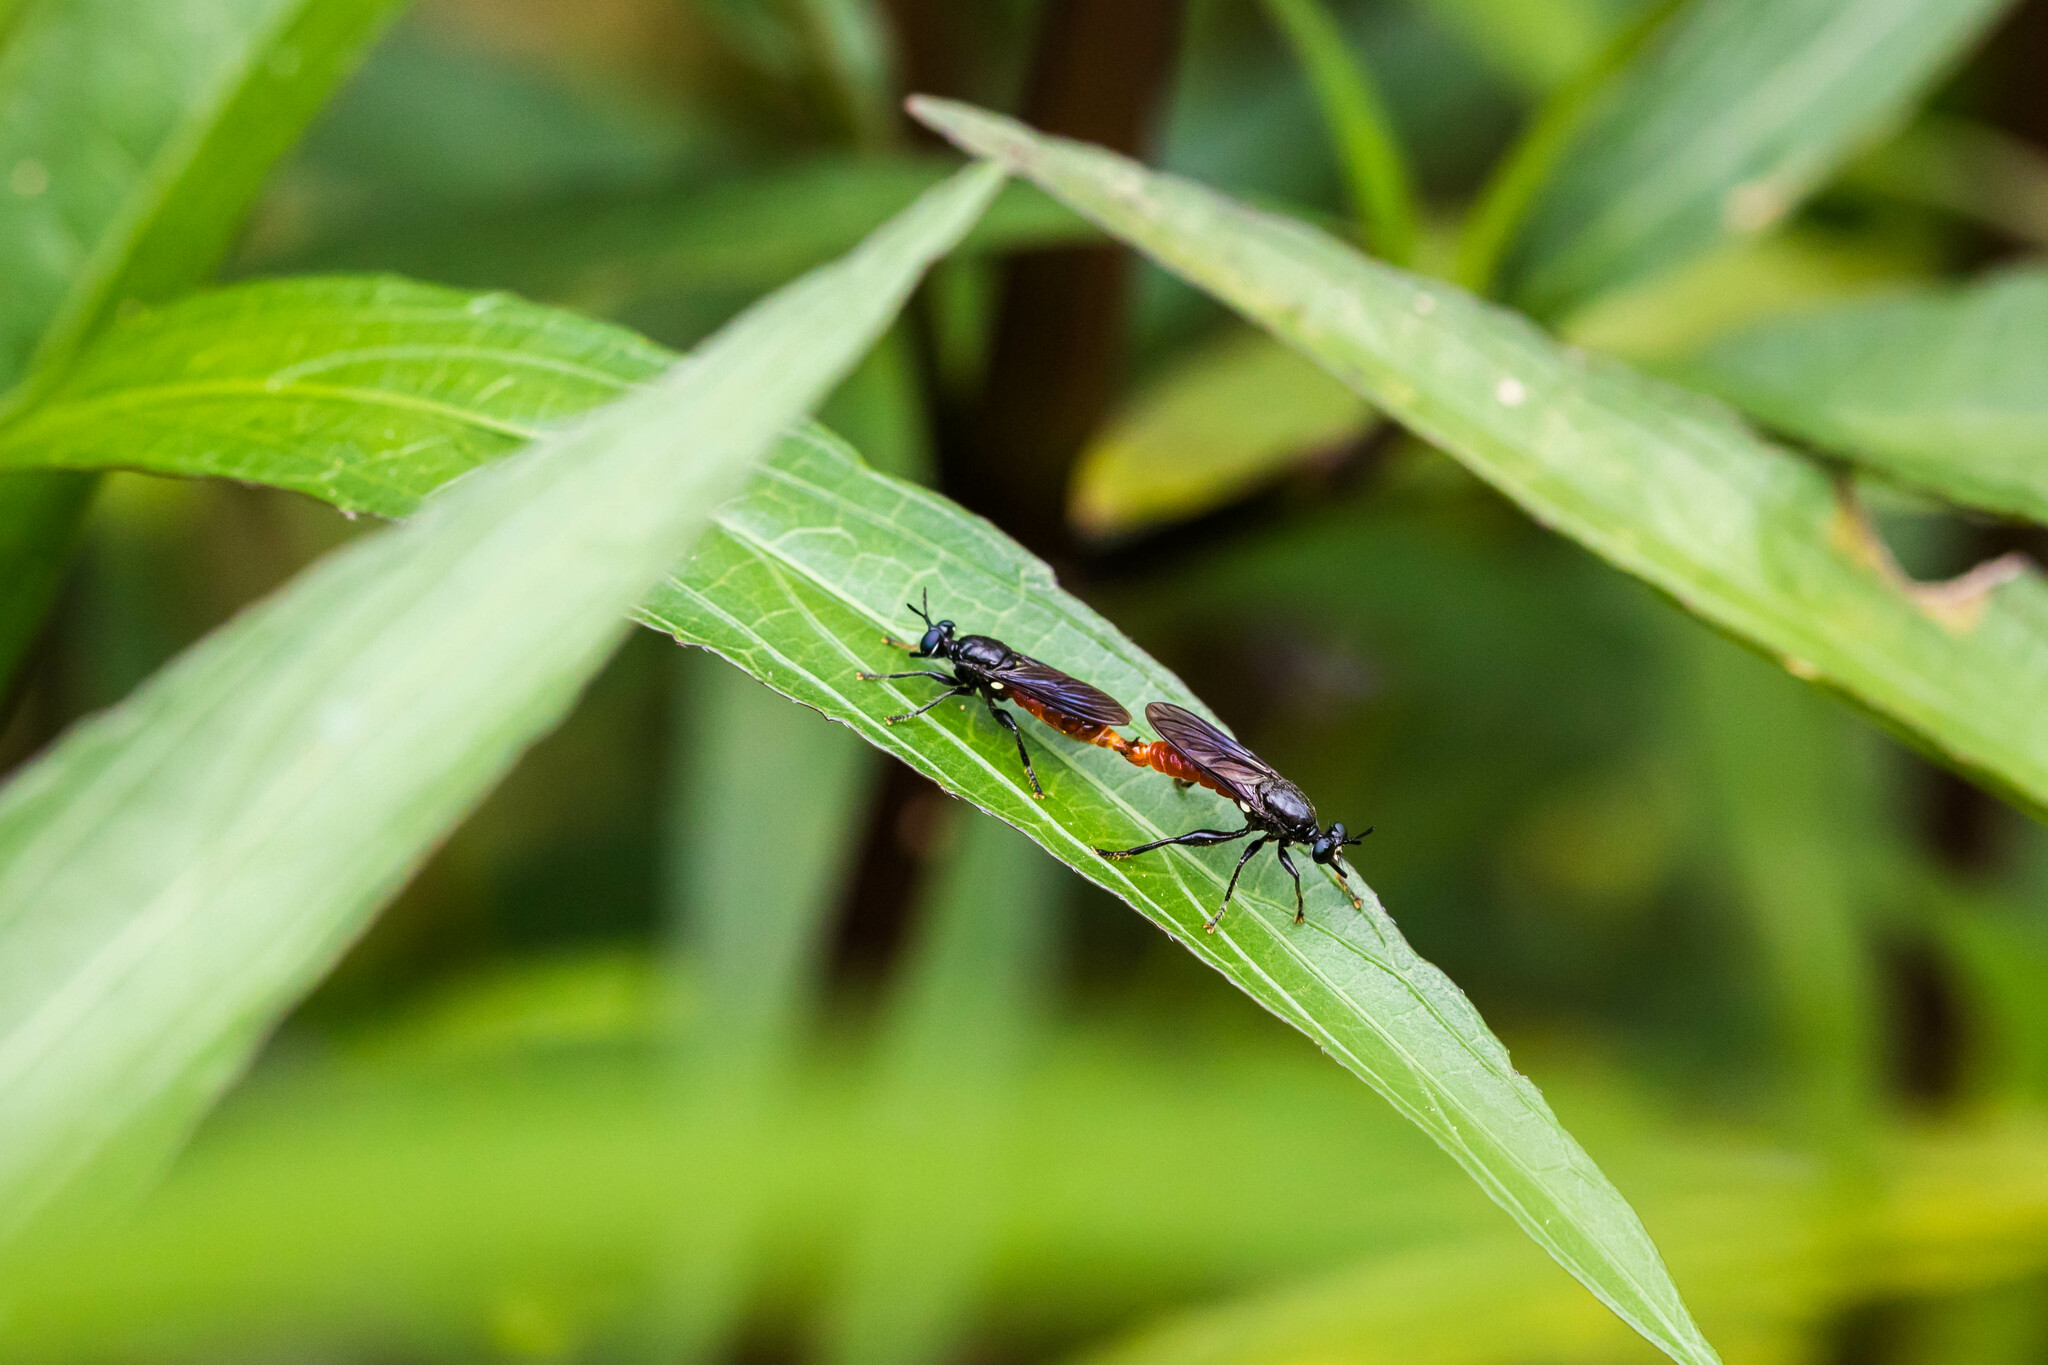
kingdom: Animalia
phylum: Arthropoda
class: Insecta
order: Diptera
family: Asilidae
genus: Lampria
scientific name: Lampria bicolor
